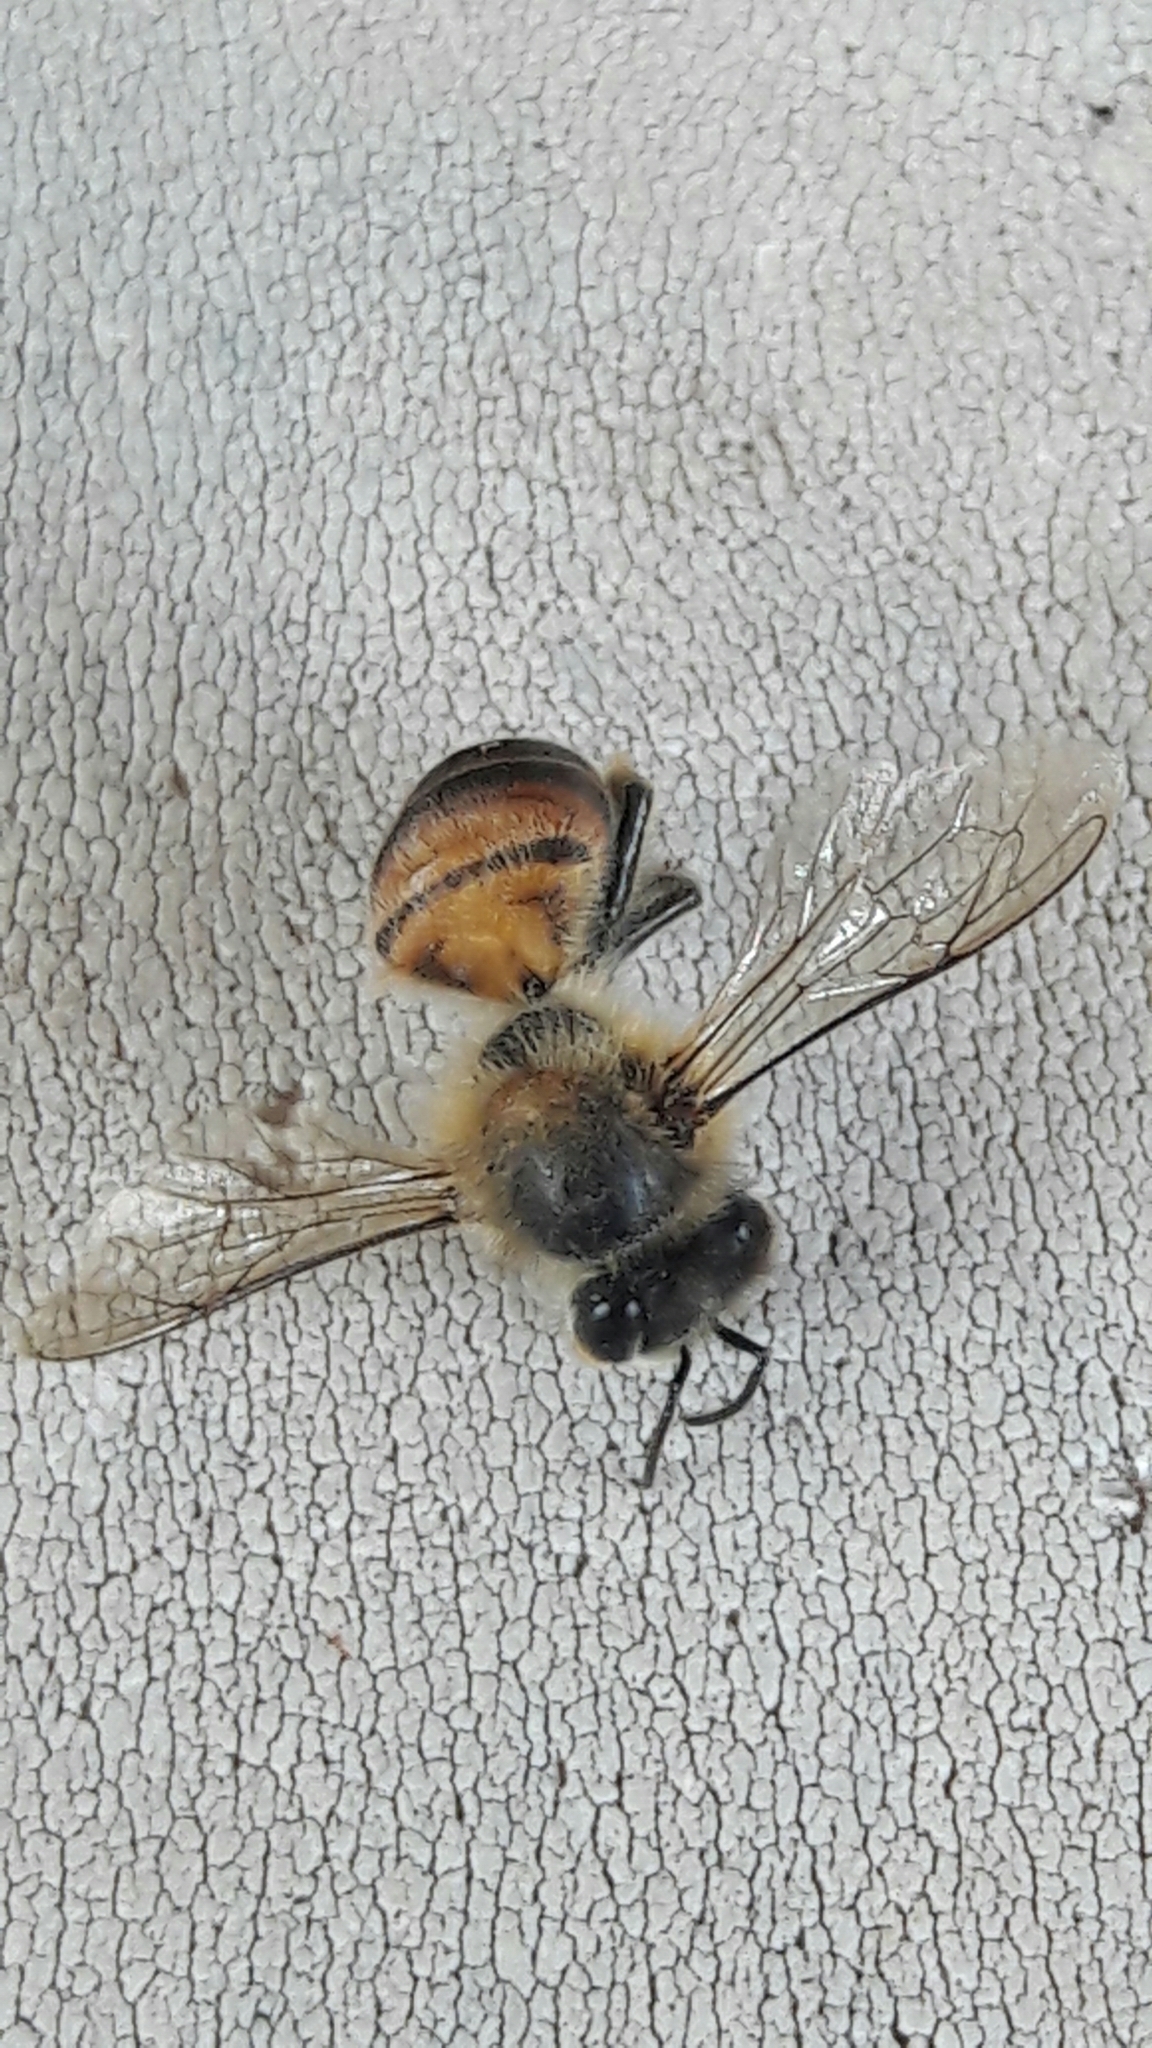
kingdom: Animalia
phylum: Arthropoda
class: Insecta
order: Hymenoptera
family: Apidae
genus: Apis
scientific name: Apis mellifera
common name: Honey bee
